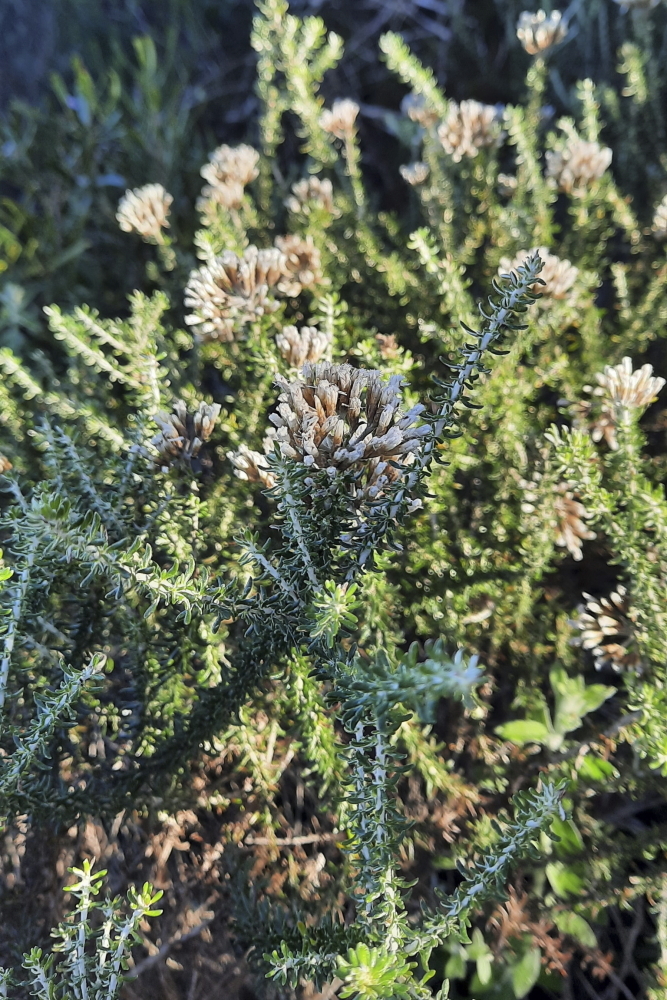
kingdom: Plantae
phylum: Tracheophyta
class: Magnoliopsida
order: Asterales
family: Asteraceae
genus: Metalasia
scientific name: Metalasia muricata
